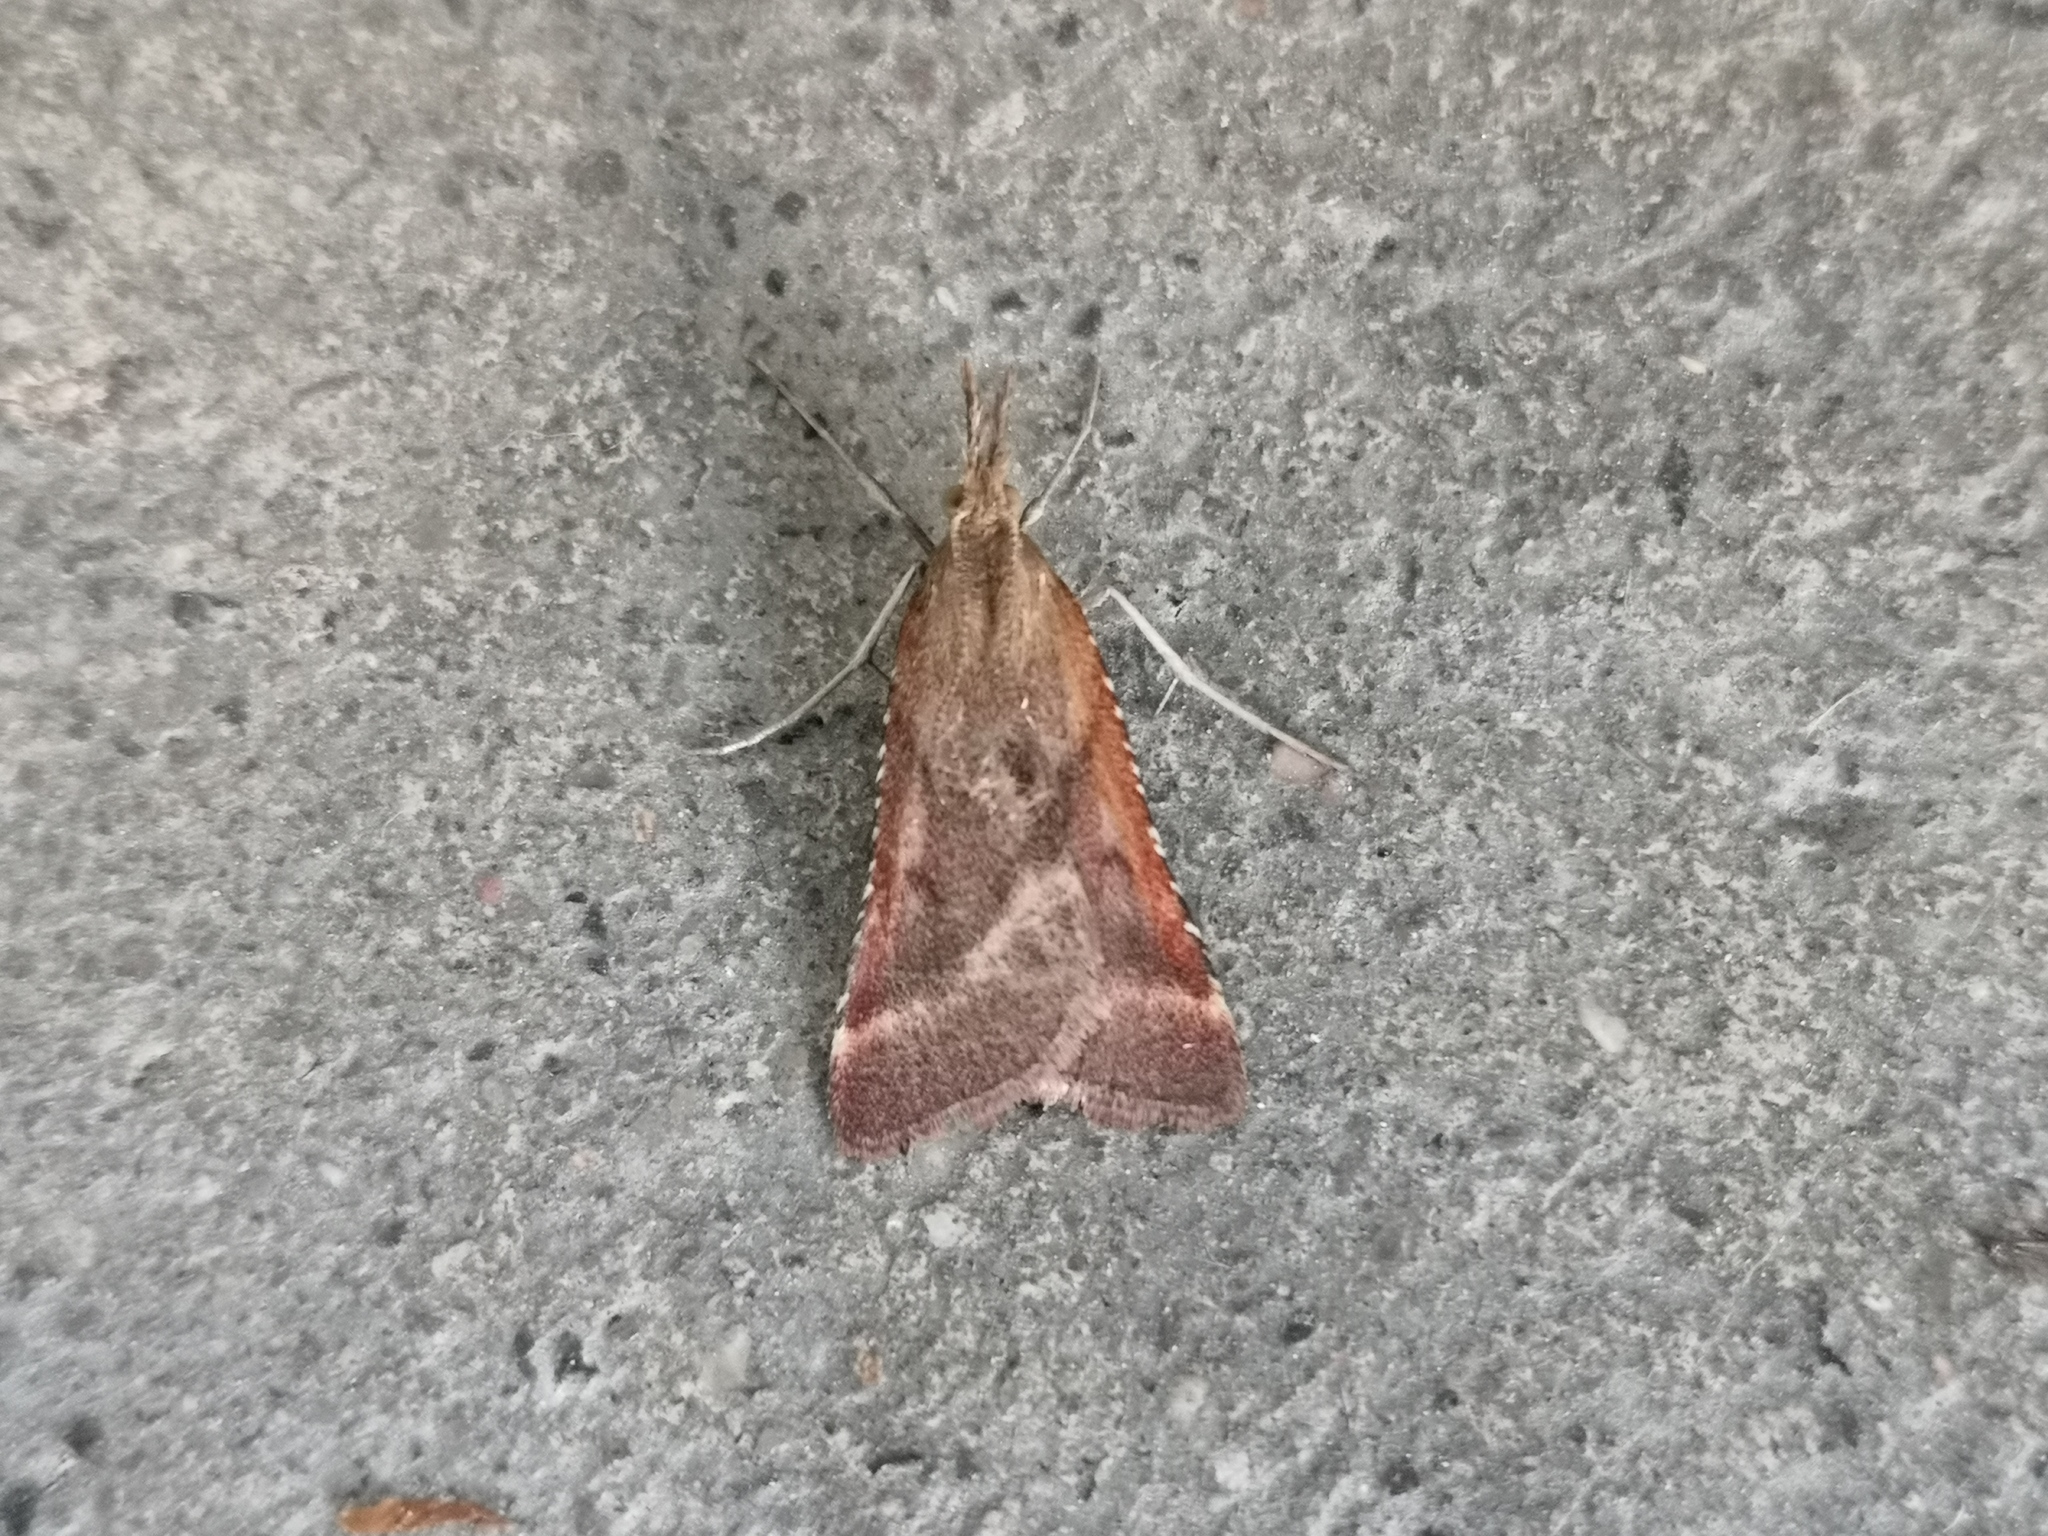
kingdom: Animalia
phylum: Arthropoda
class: Insecta
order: Lepidoptera
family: Pyralidae
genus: Synaphe
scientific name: Synaphe punctalis
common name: Long-legged tabby
